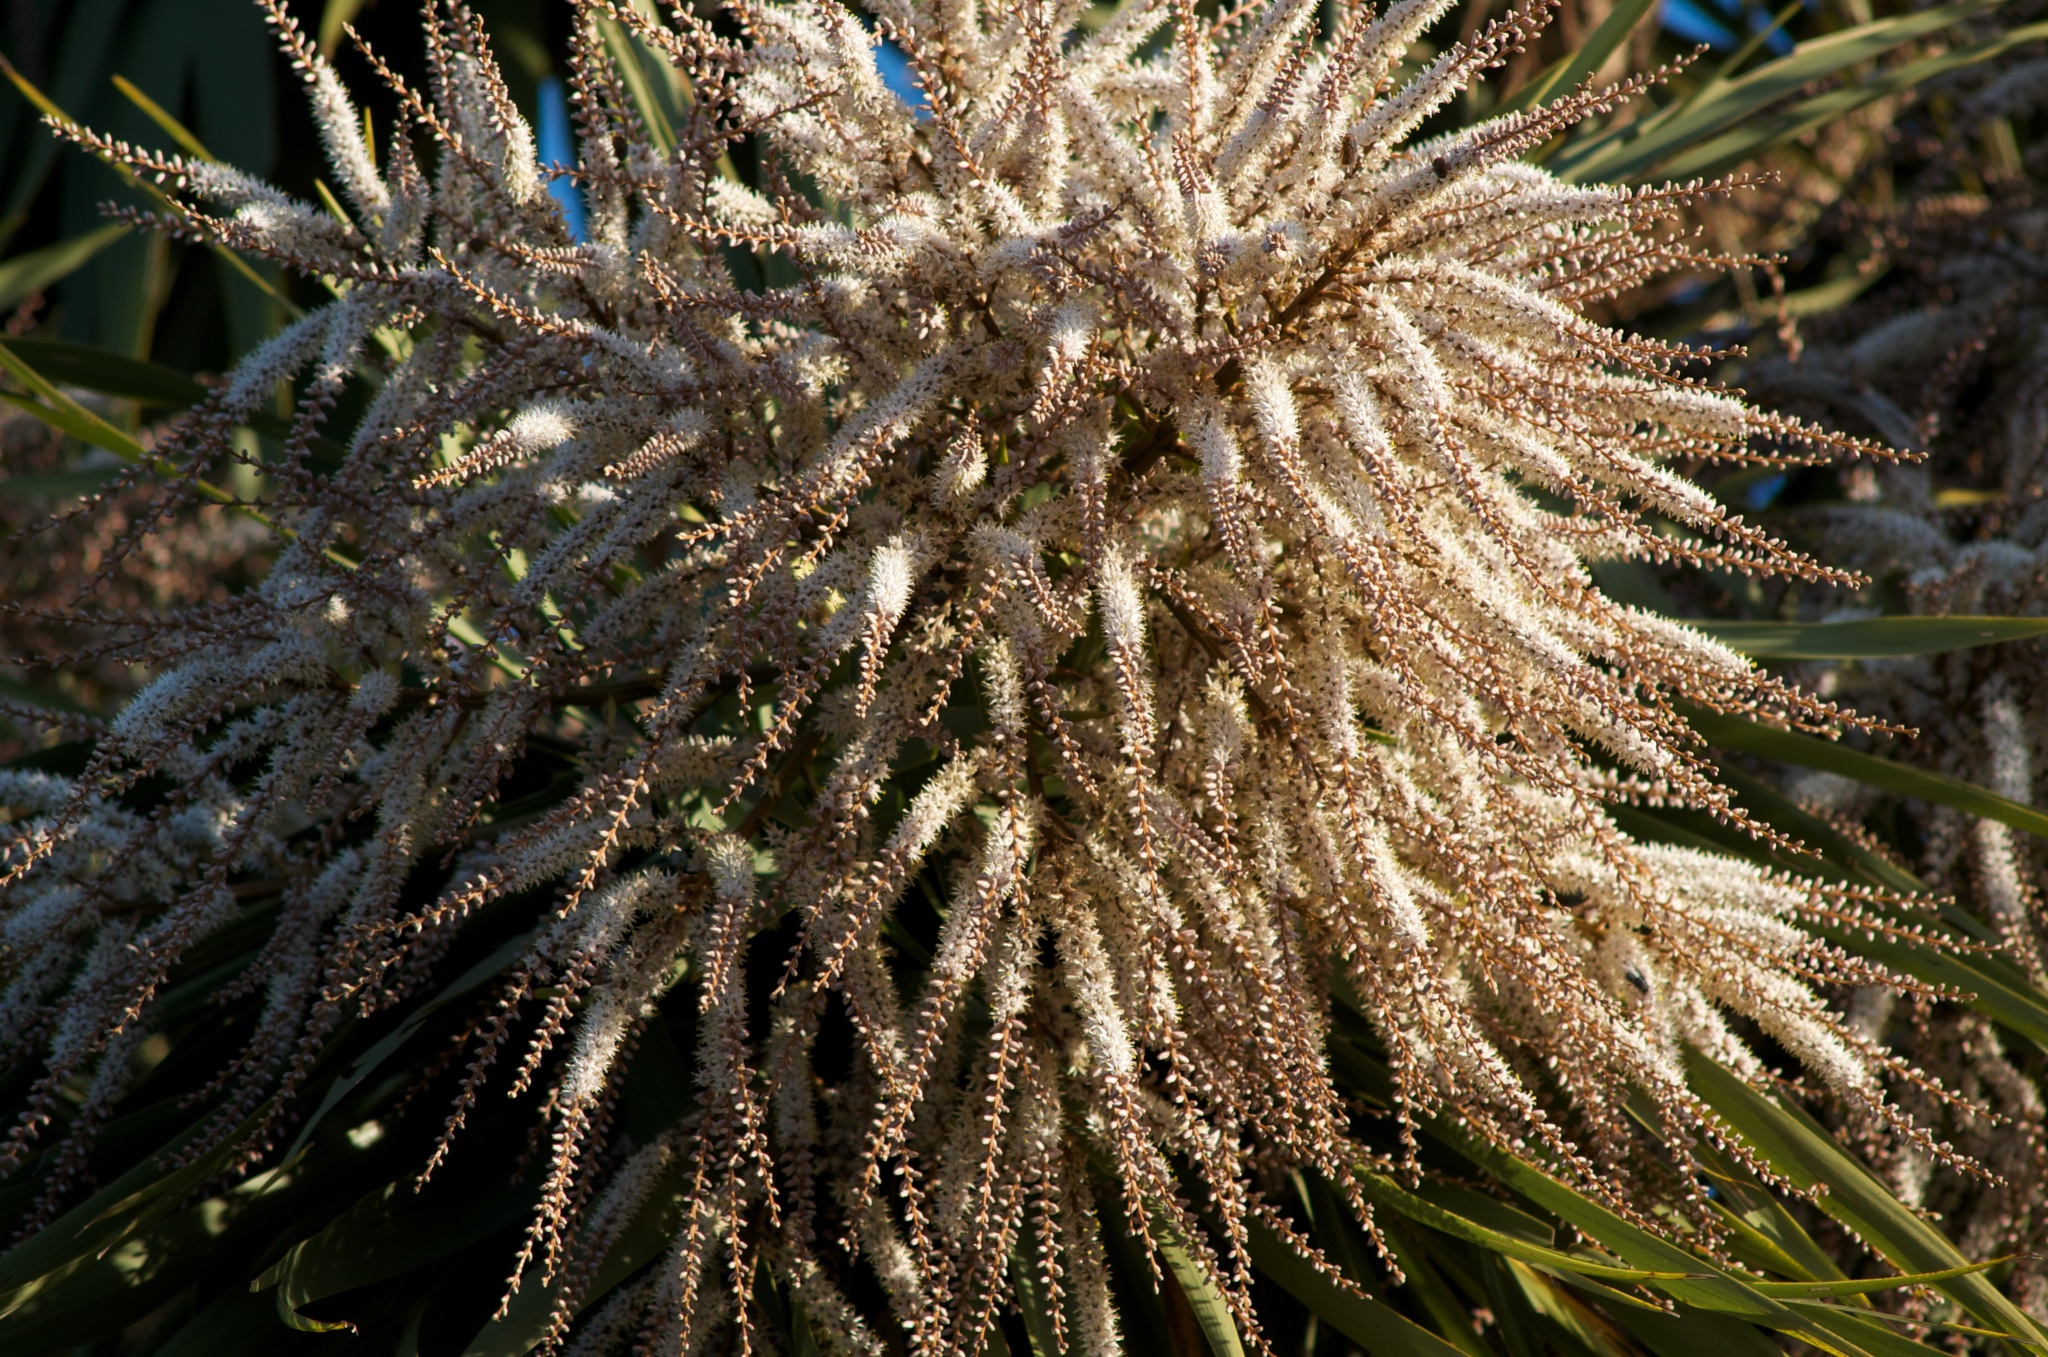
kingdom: Plantae
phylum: Tracheophyta
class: Liliopsida
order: Asparagales
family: Asparagaceae
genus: Cordyline
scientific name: Cordyline australis
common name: Cabbage-palm
